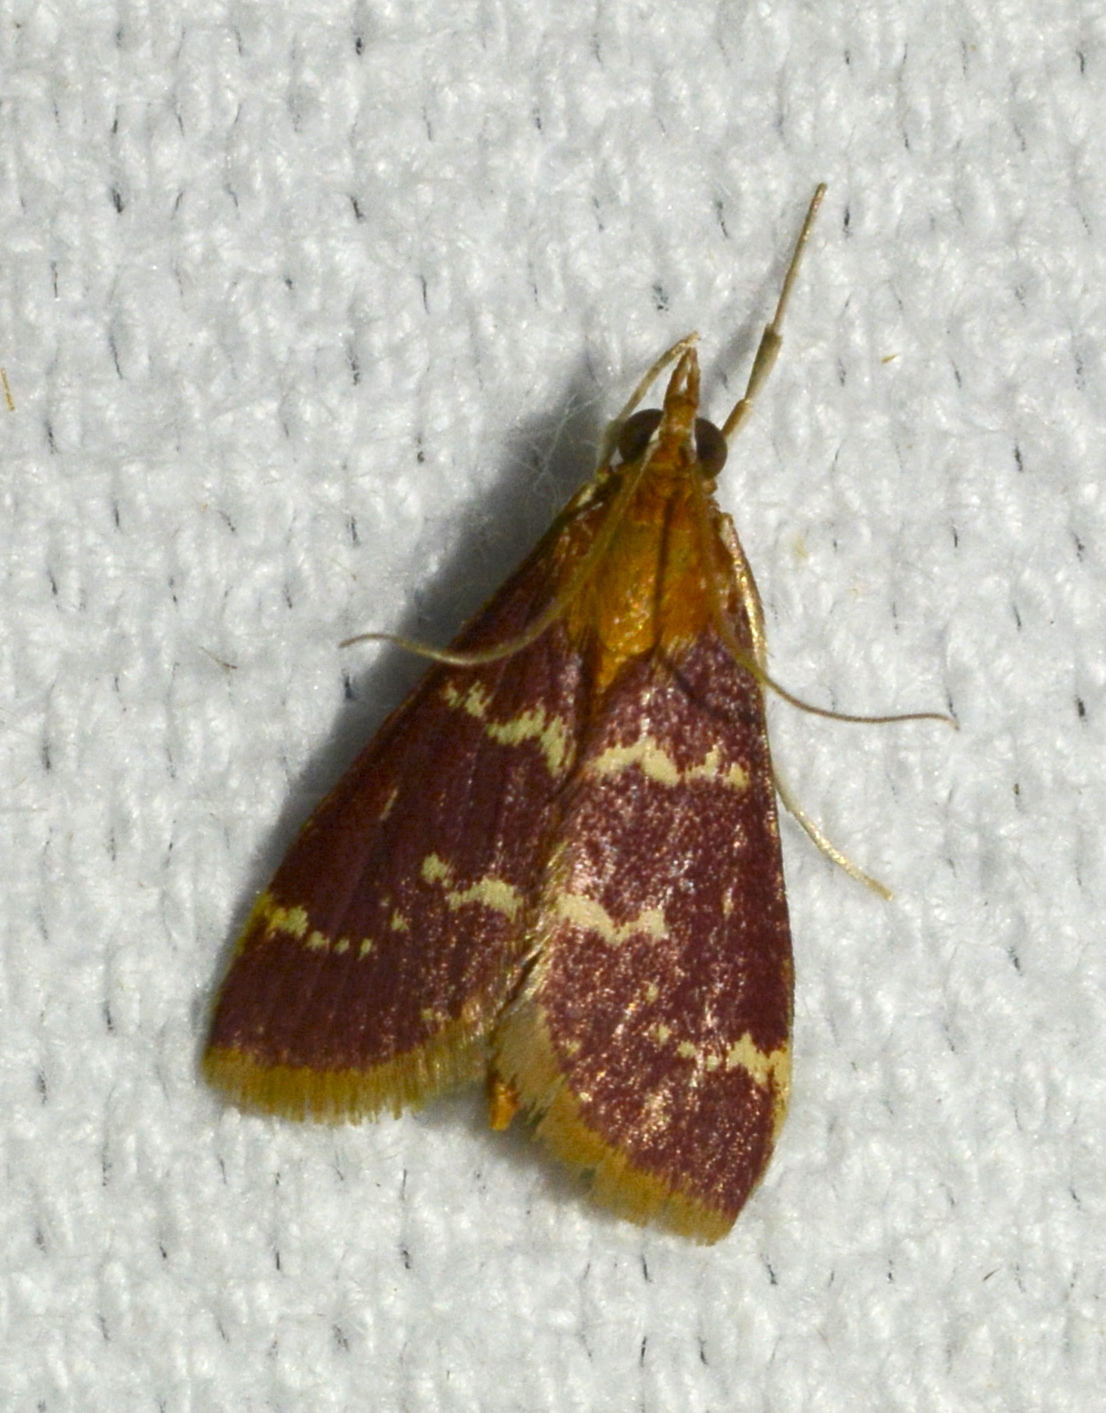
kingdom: Animalia
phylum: Arthropoda
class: Insecta
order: Lepidoptera
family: Crambidae
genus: Pyrausta
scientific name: Pyrausta signatalis
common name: Raspberry pyrausta moth
